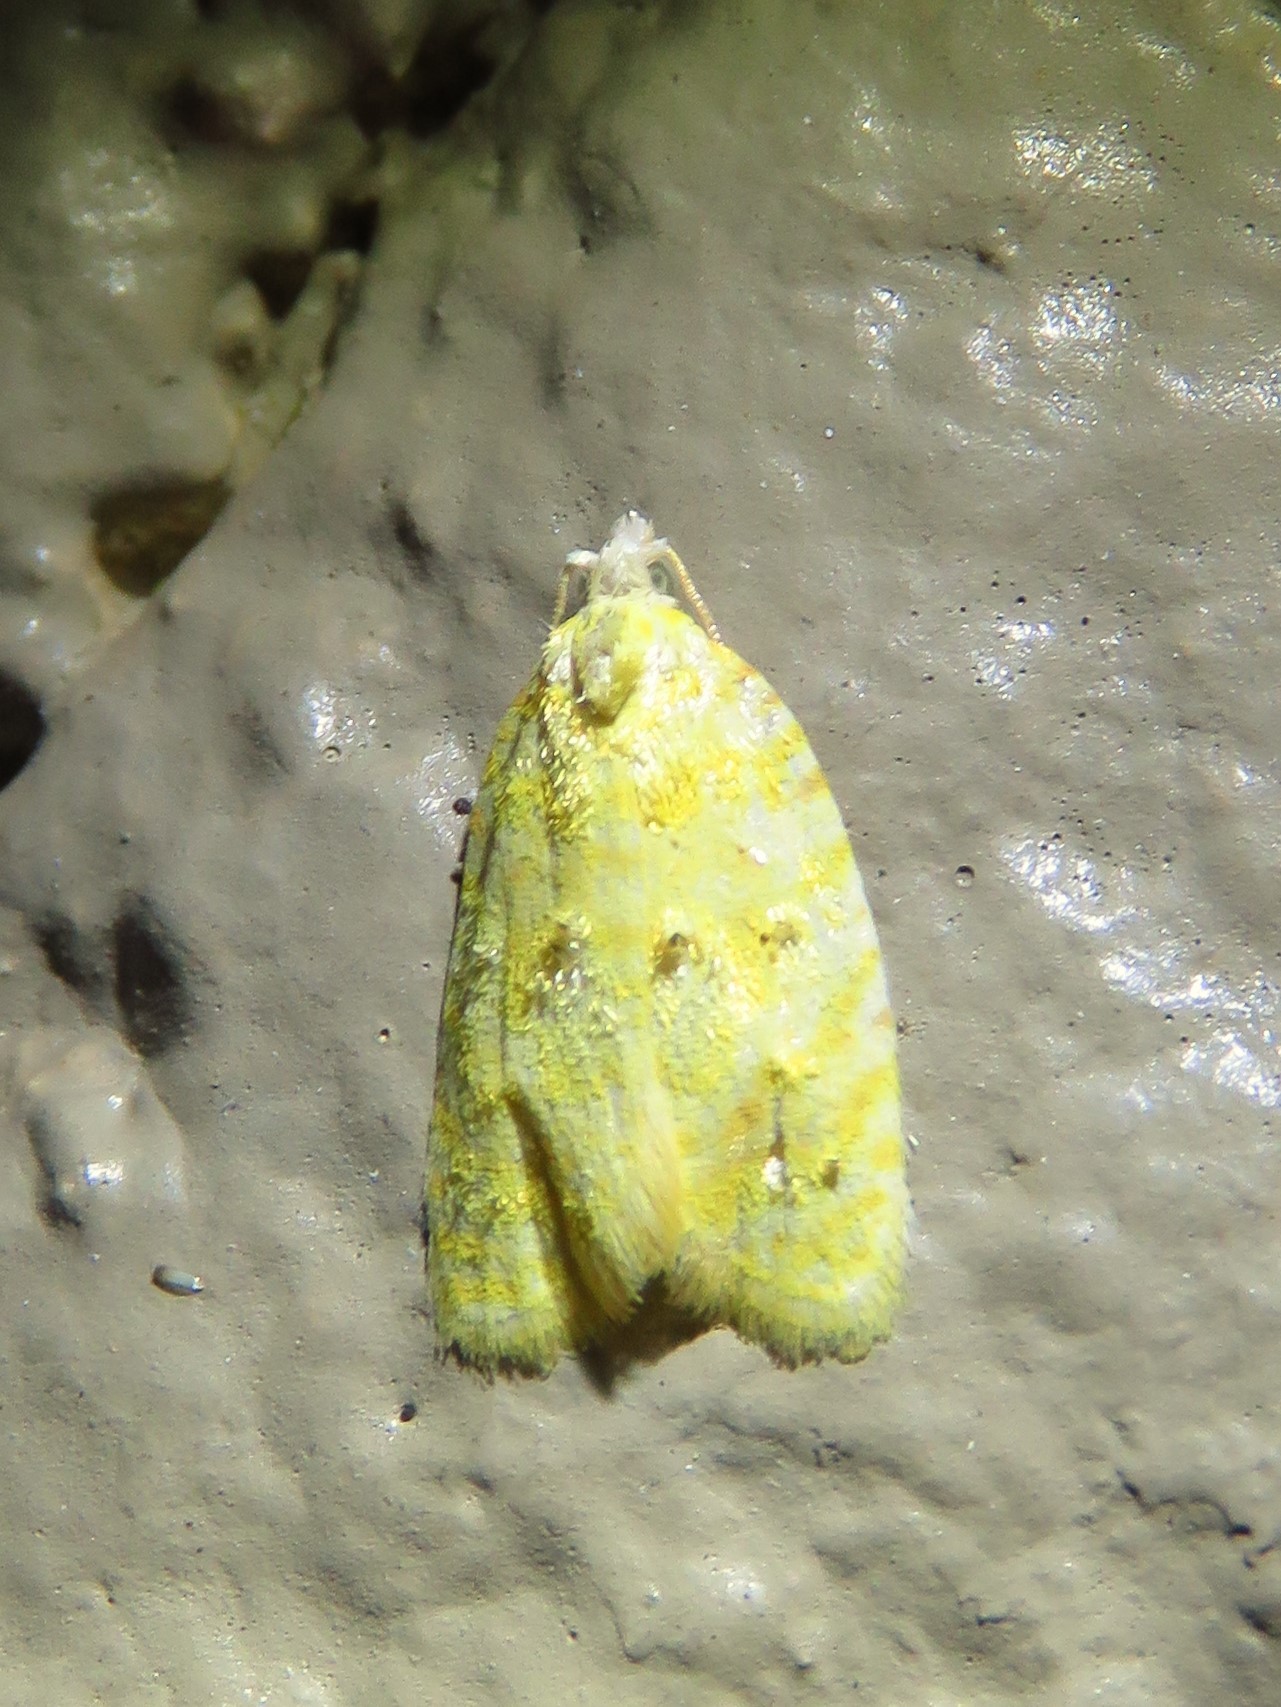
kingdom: Animalia
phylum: Arthropoda
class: Insecta
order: Lepidoptera
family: Tortricidae
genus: Acleris
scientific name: Acleris semipurpurana
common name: Oak leaftier moth
